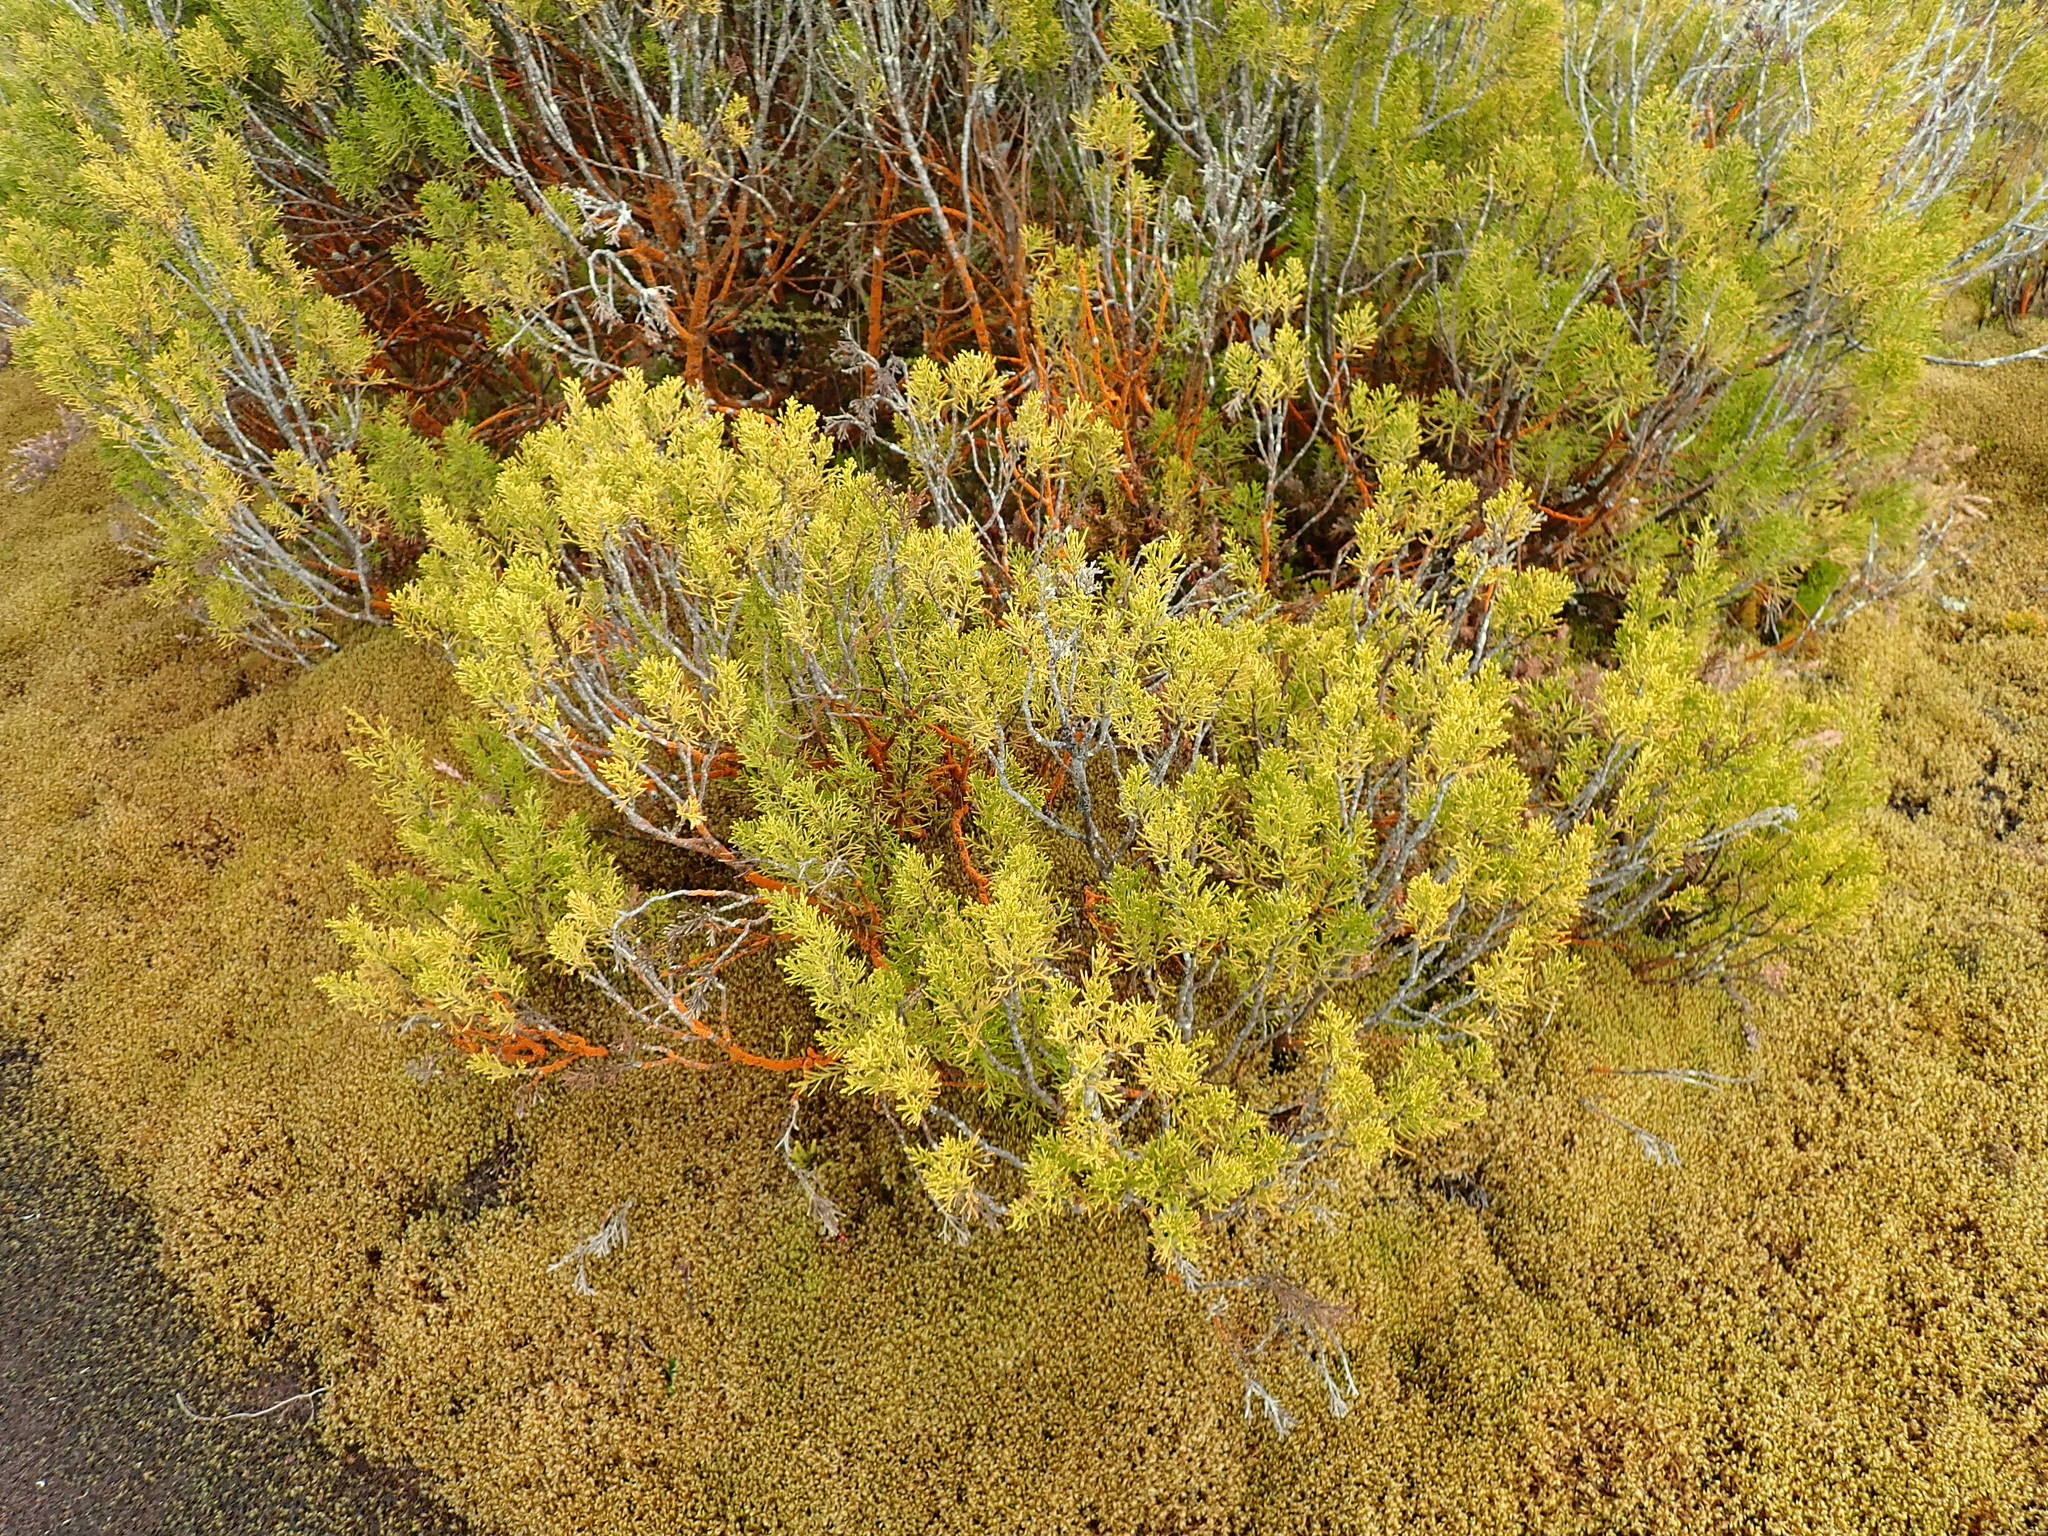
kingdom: Plantae
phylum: Tracheophyta
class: Pinopsida
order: Pinales
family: Podocarpaceae
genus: Halocarpus
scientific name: Halocarpus bidwillii
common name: Bog pine
